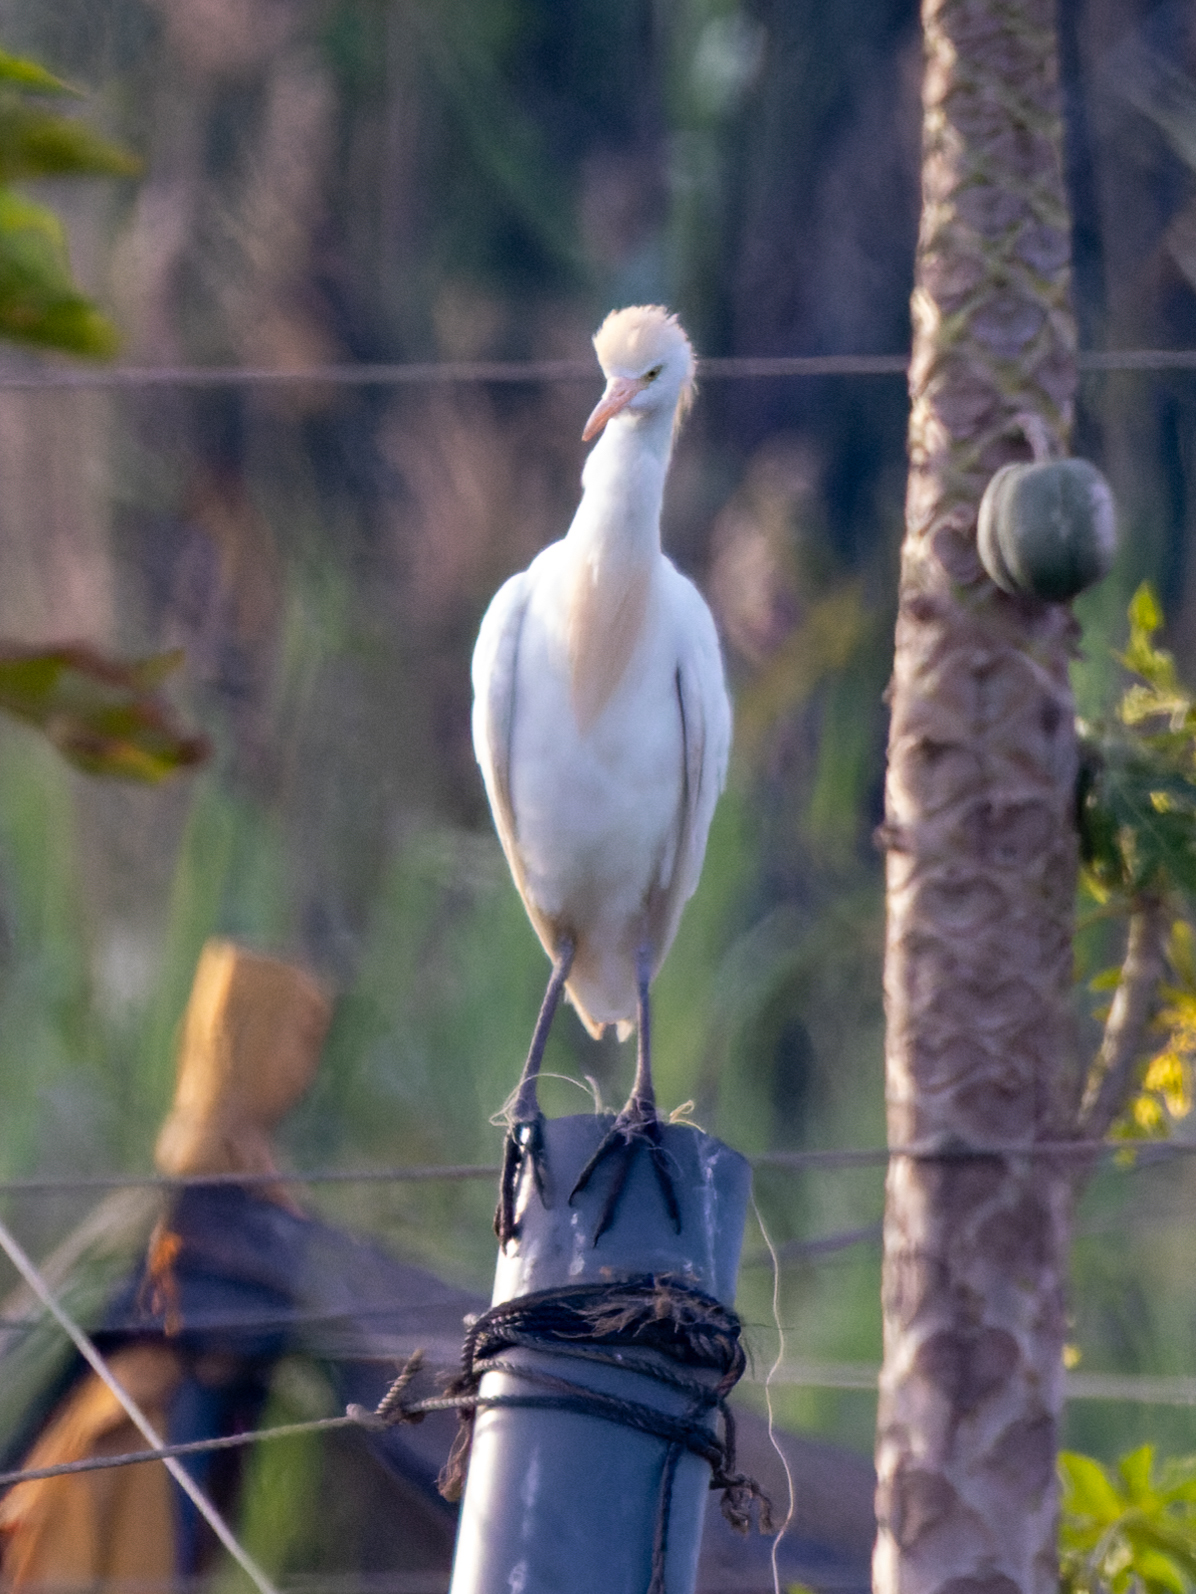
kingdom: Animalia
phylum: Chordata
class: Aves
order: Pelecaniformes
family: Ardeidae
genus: Bubulcus
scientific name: Bubulcus ibis
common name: Cattle egret
